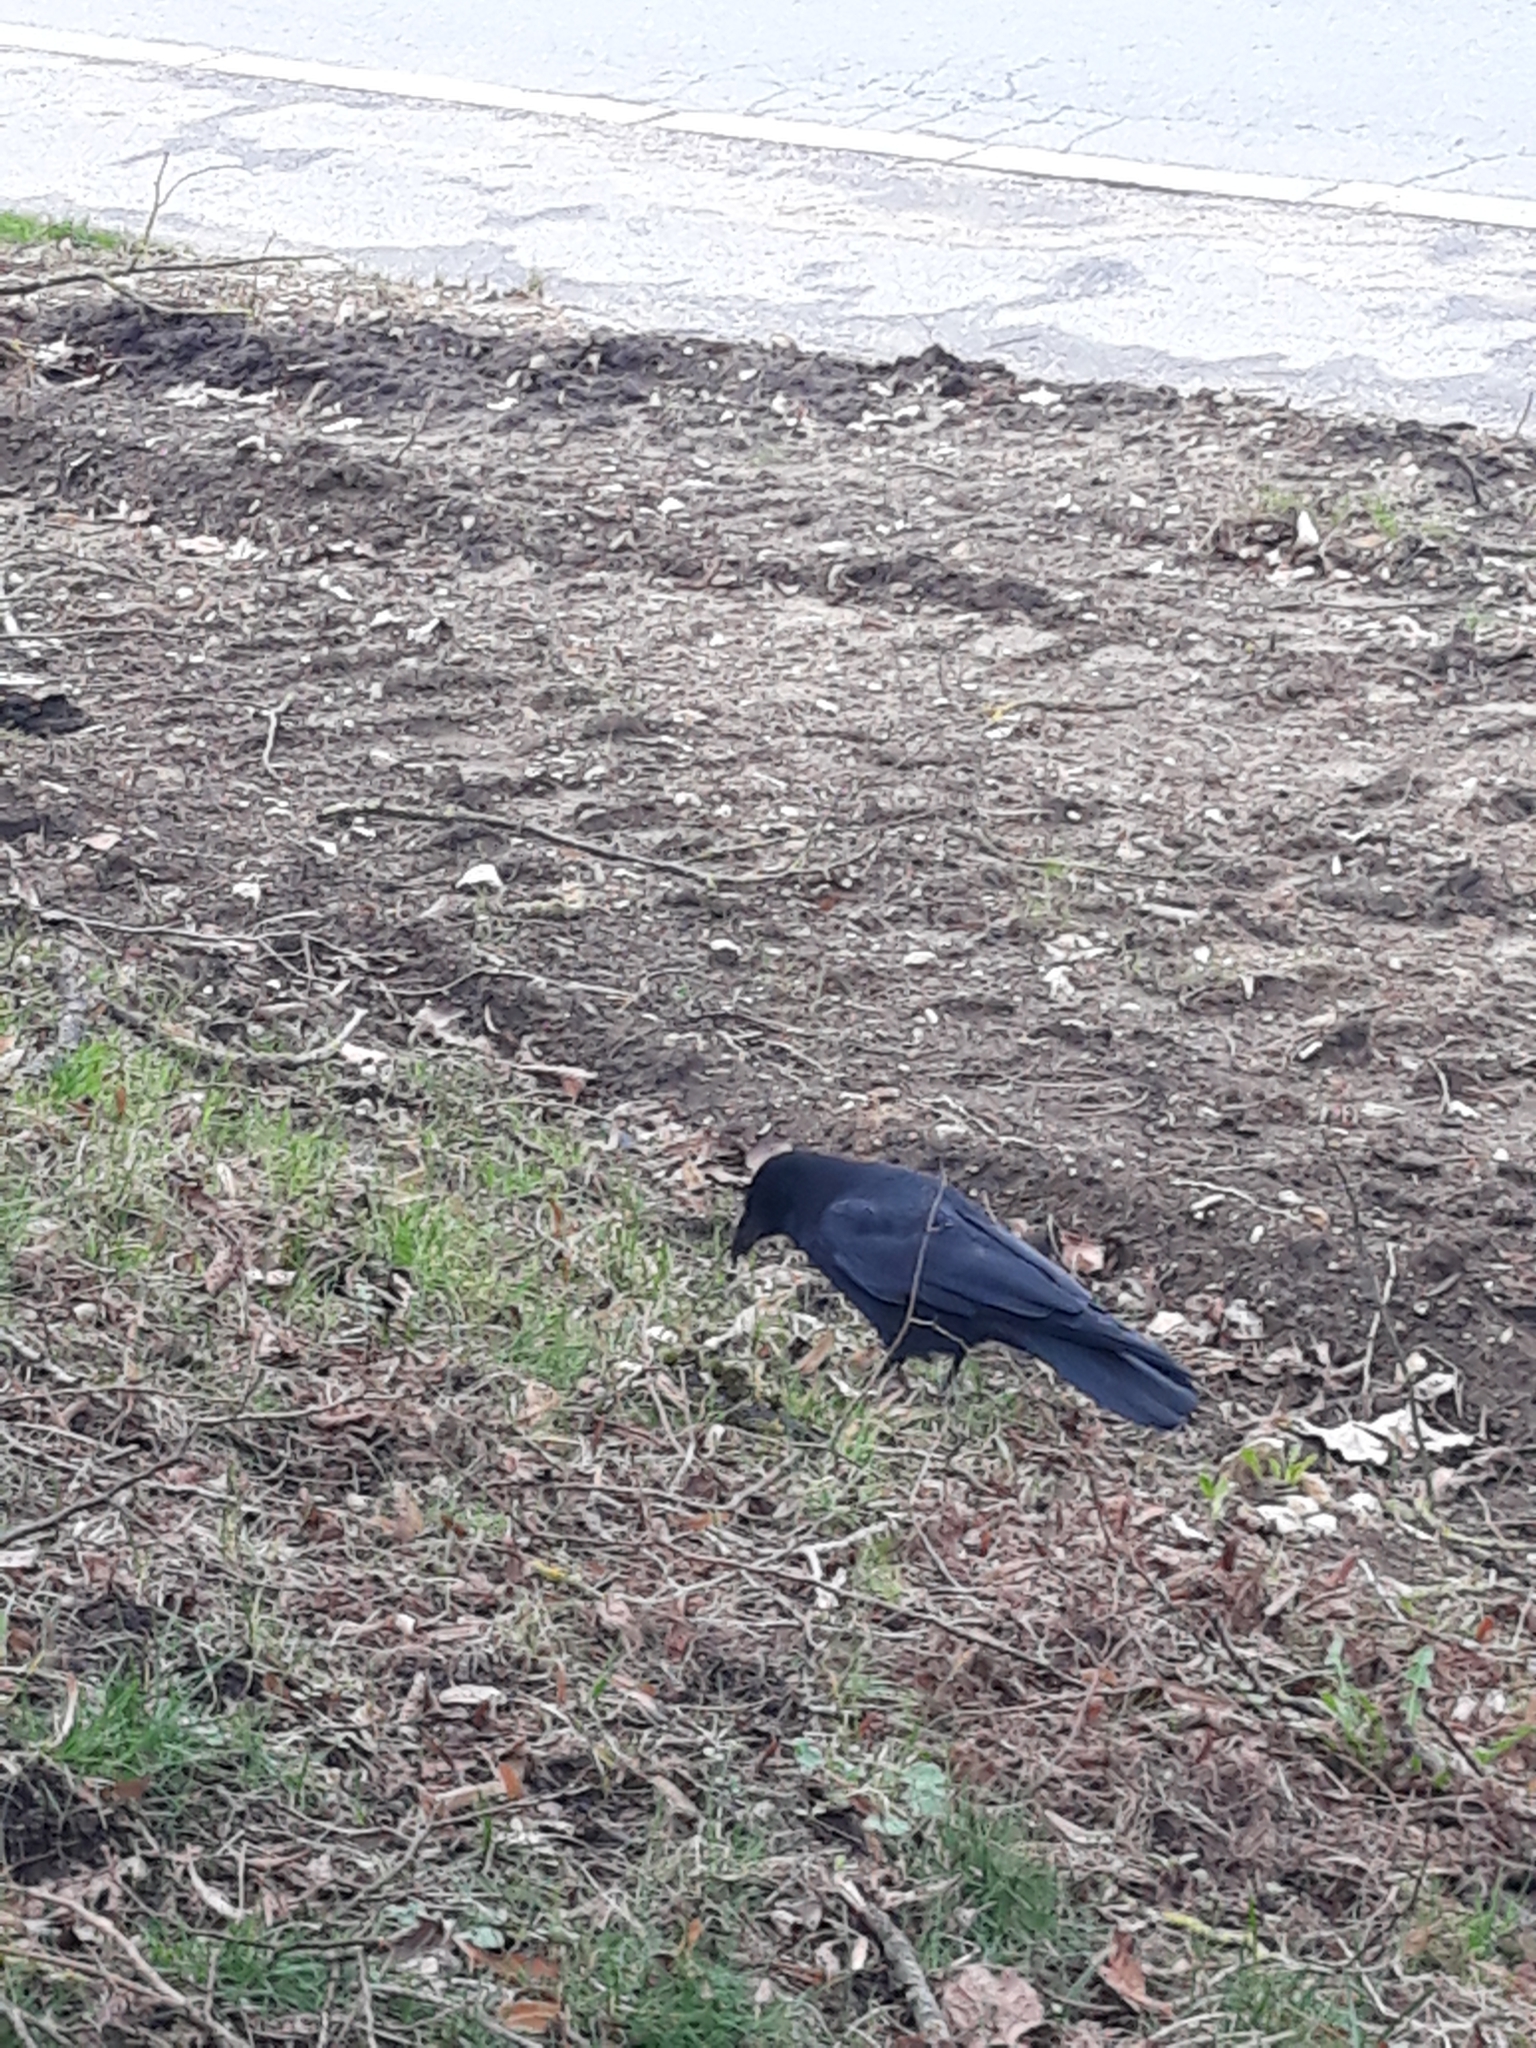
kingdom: Animalia
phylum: Chordata
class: Aves
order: Passeriformes
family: Corvidae
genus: Corvus
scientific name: Corvus corone
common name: Carrion crow
